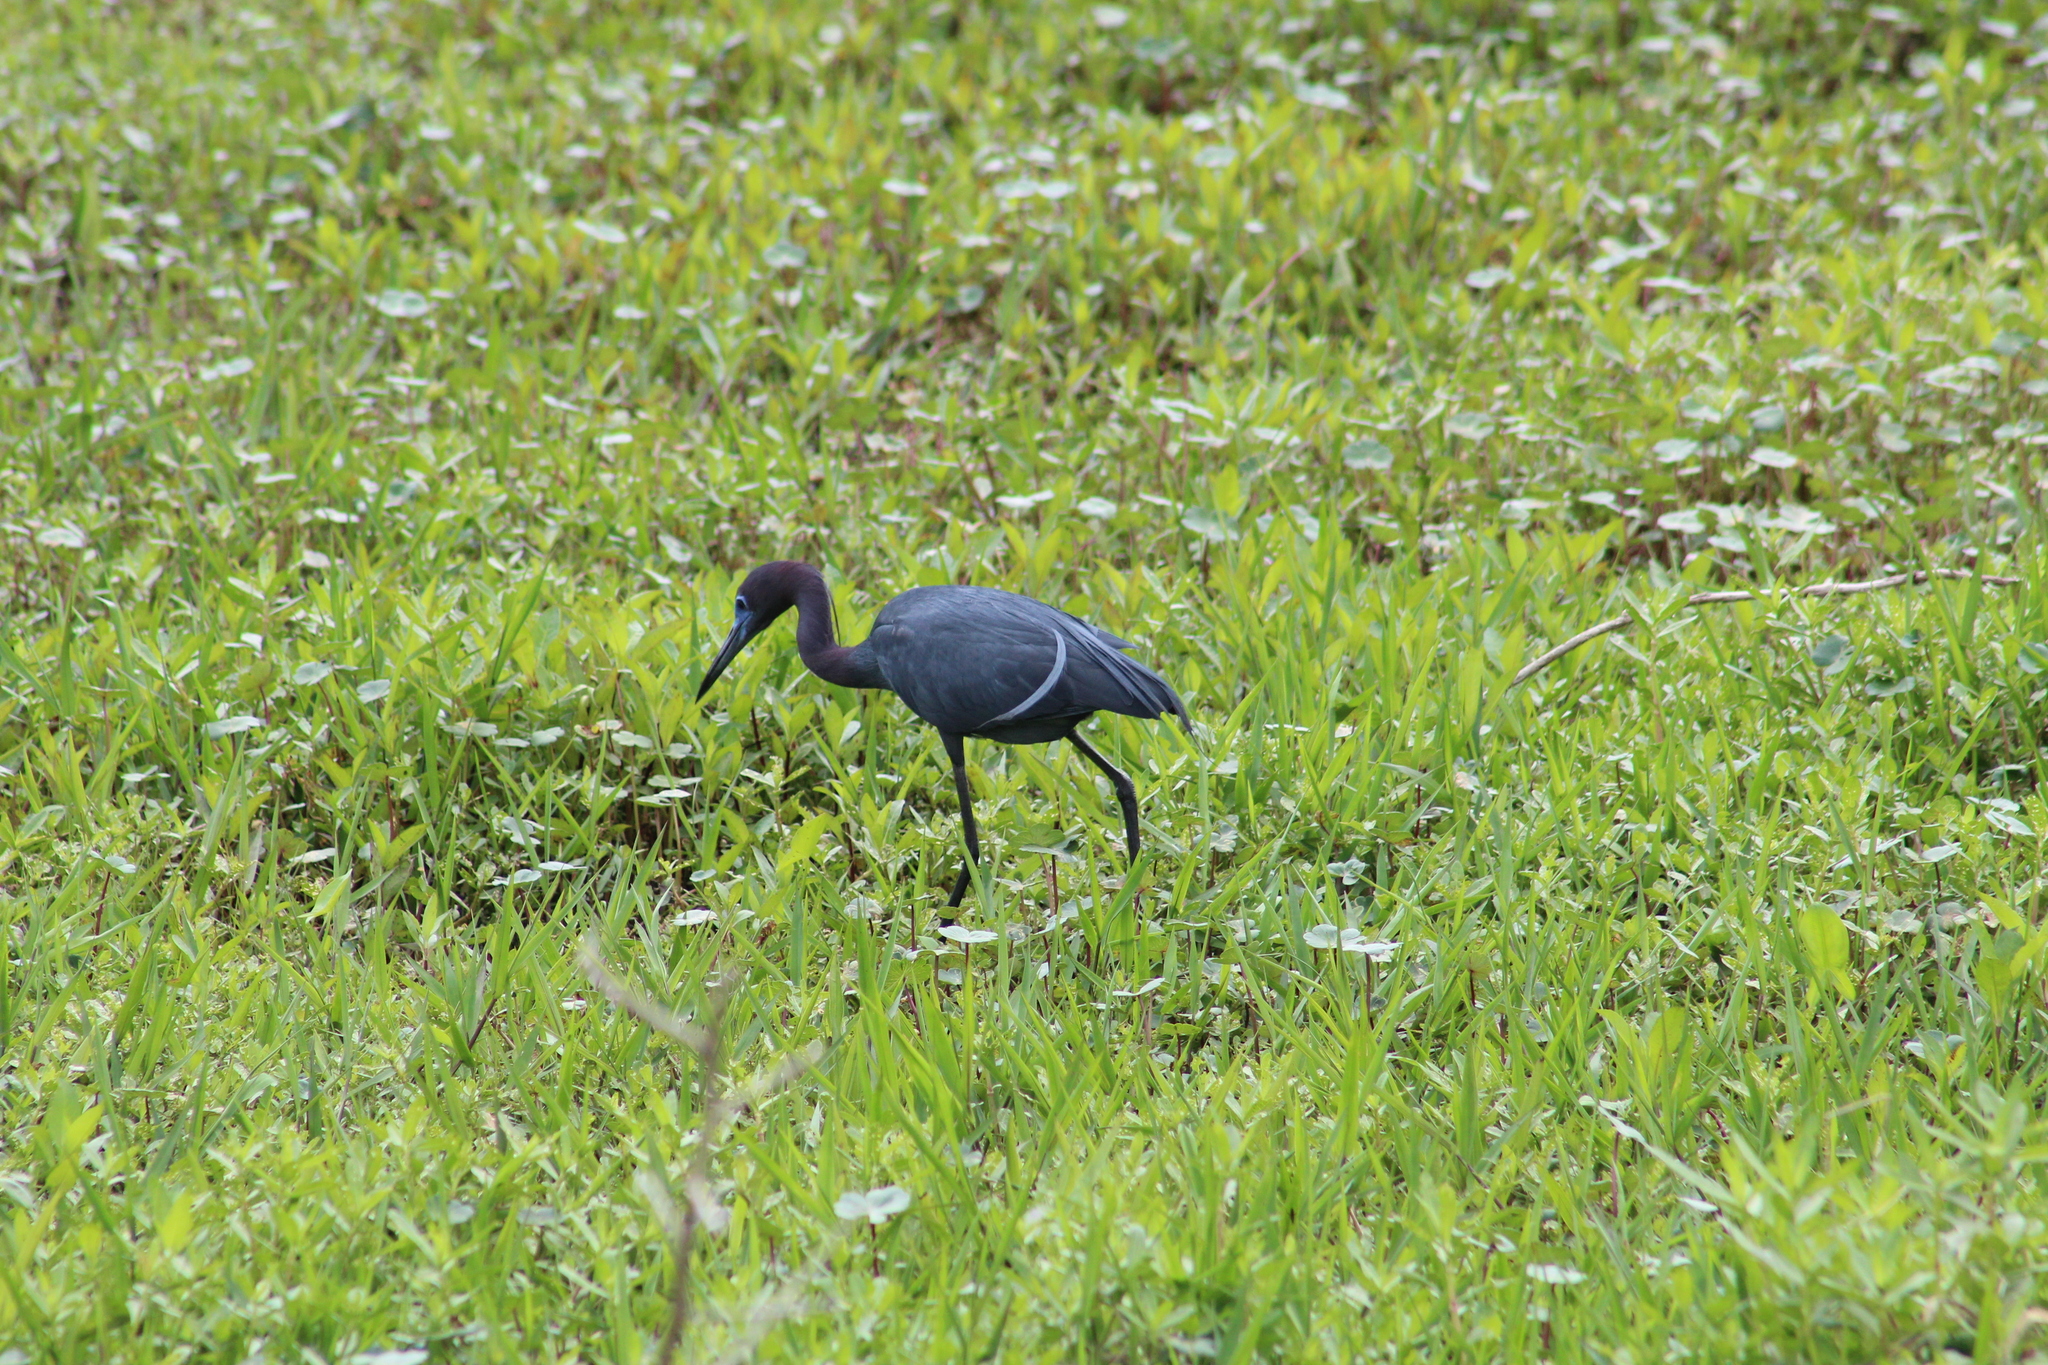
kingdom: Animalia
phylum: Chordata
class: Aves
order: Pelecaniformes
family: Ardeidae
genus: Egretta
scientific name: Egretta caerulea
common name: Little blue heron
